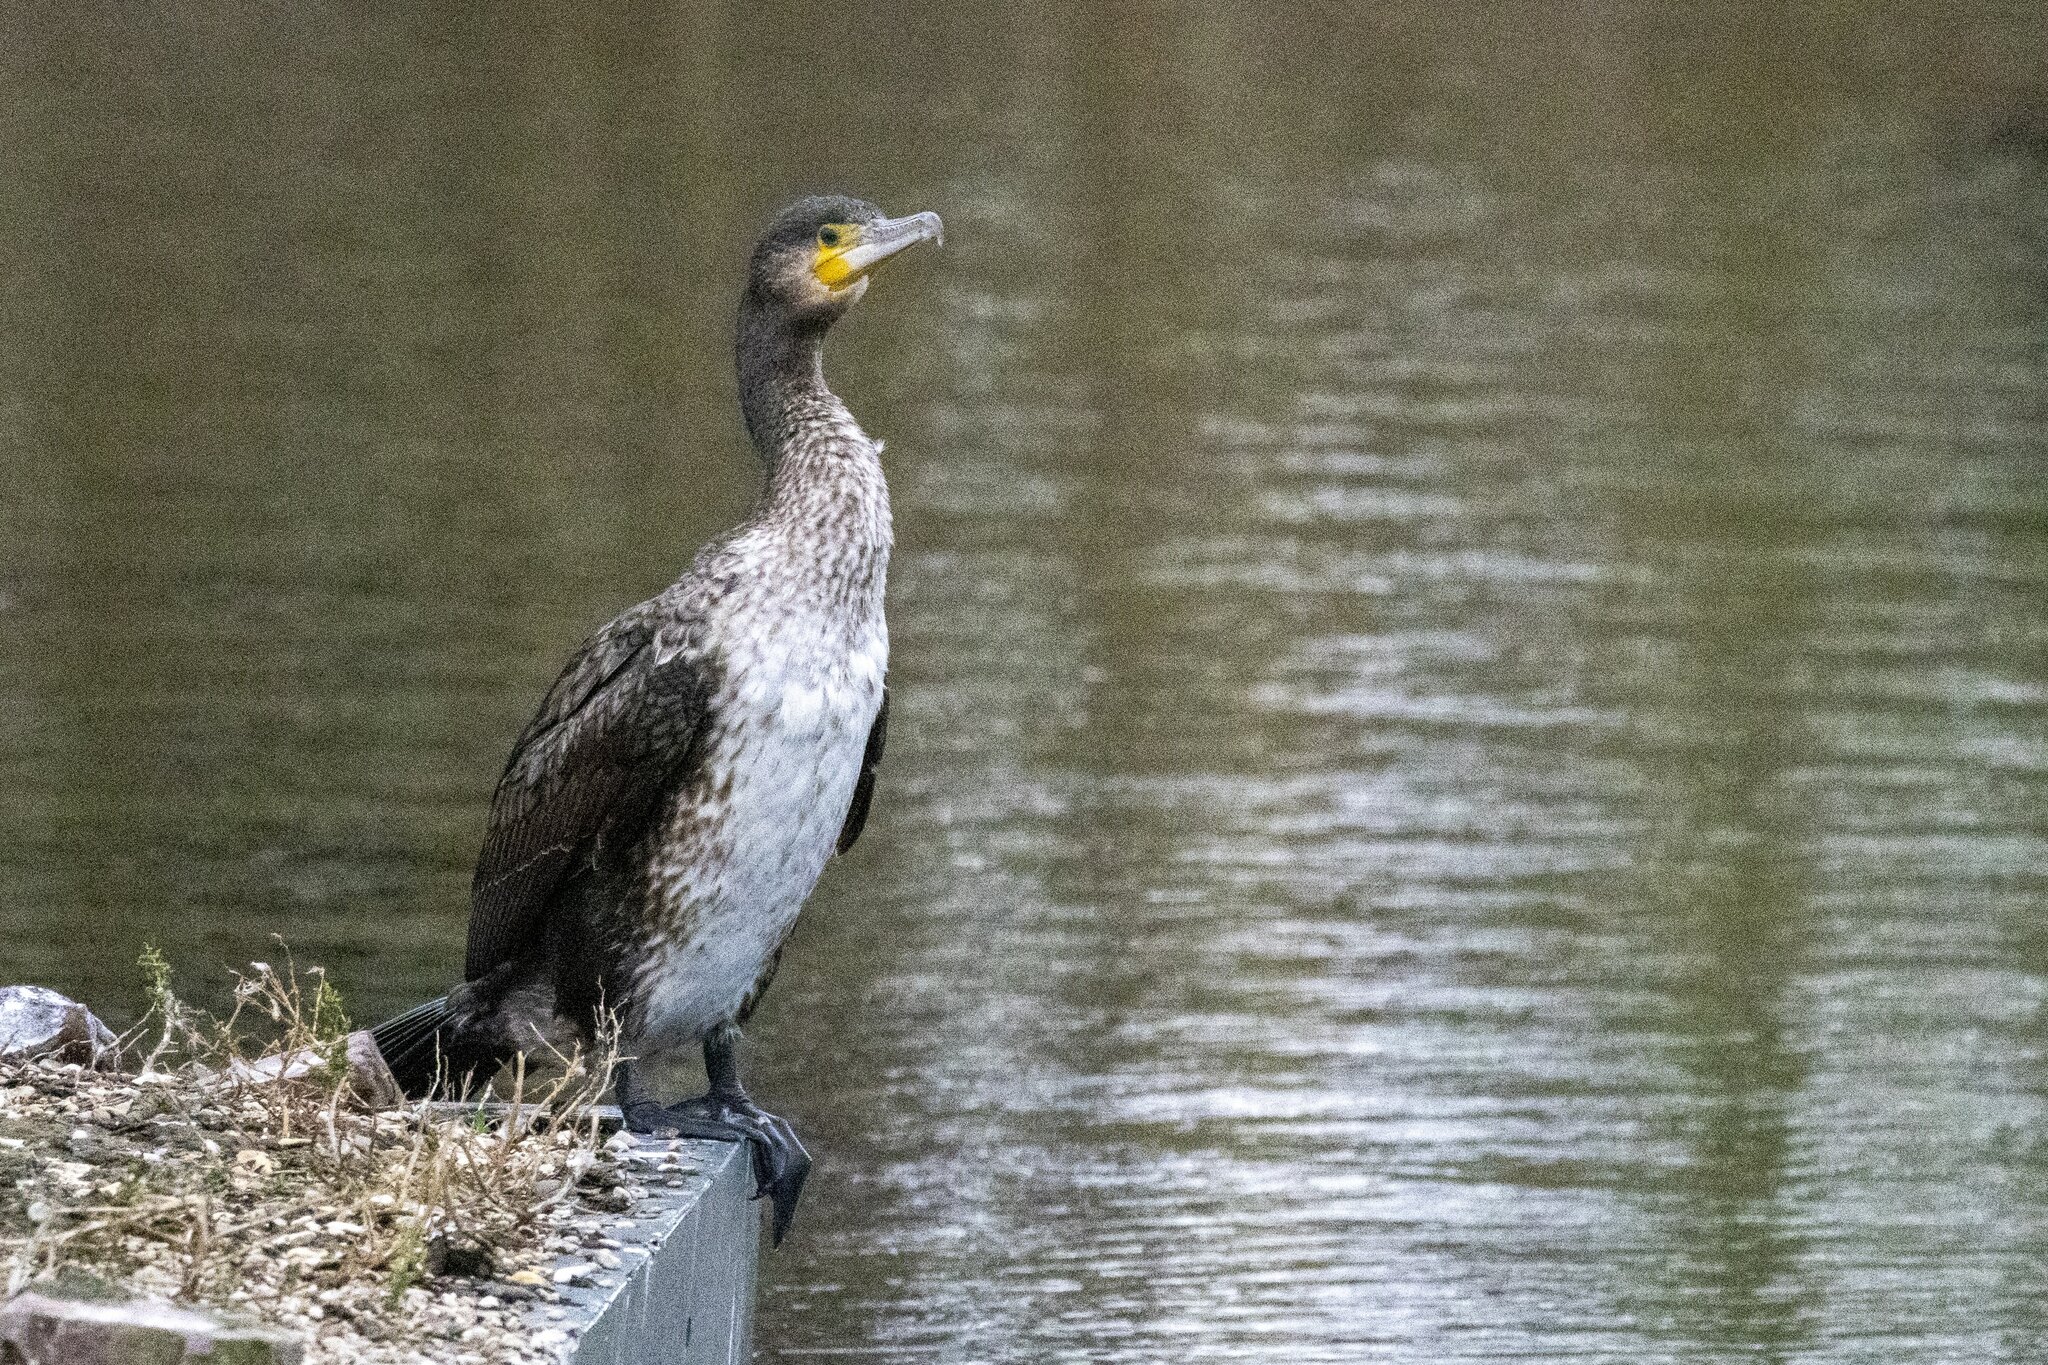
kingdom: Animalia
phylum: Chordata
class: Aves
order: Suliformes
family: Phalacrocoracidae
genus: Phalacrocorax
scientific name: Phalacrocorax carbo
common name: Great cormorant
